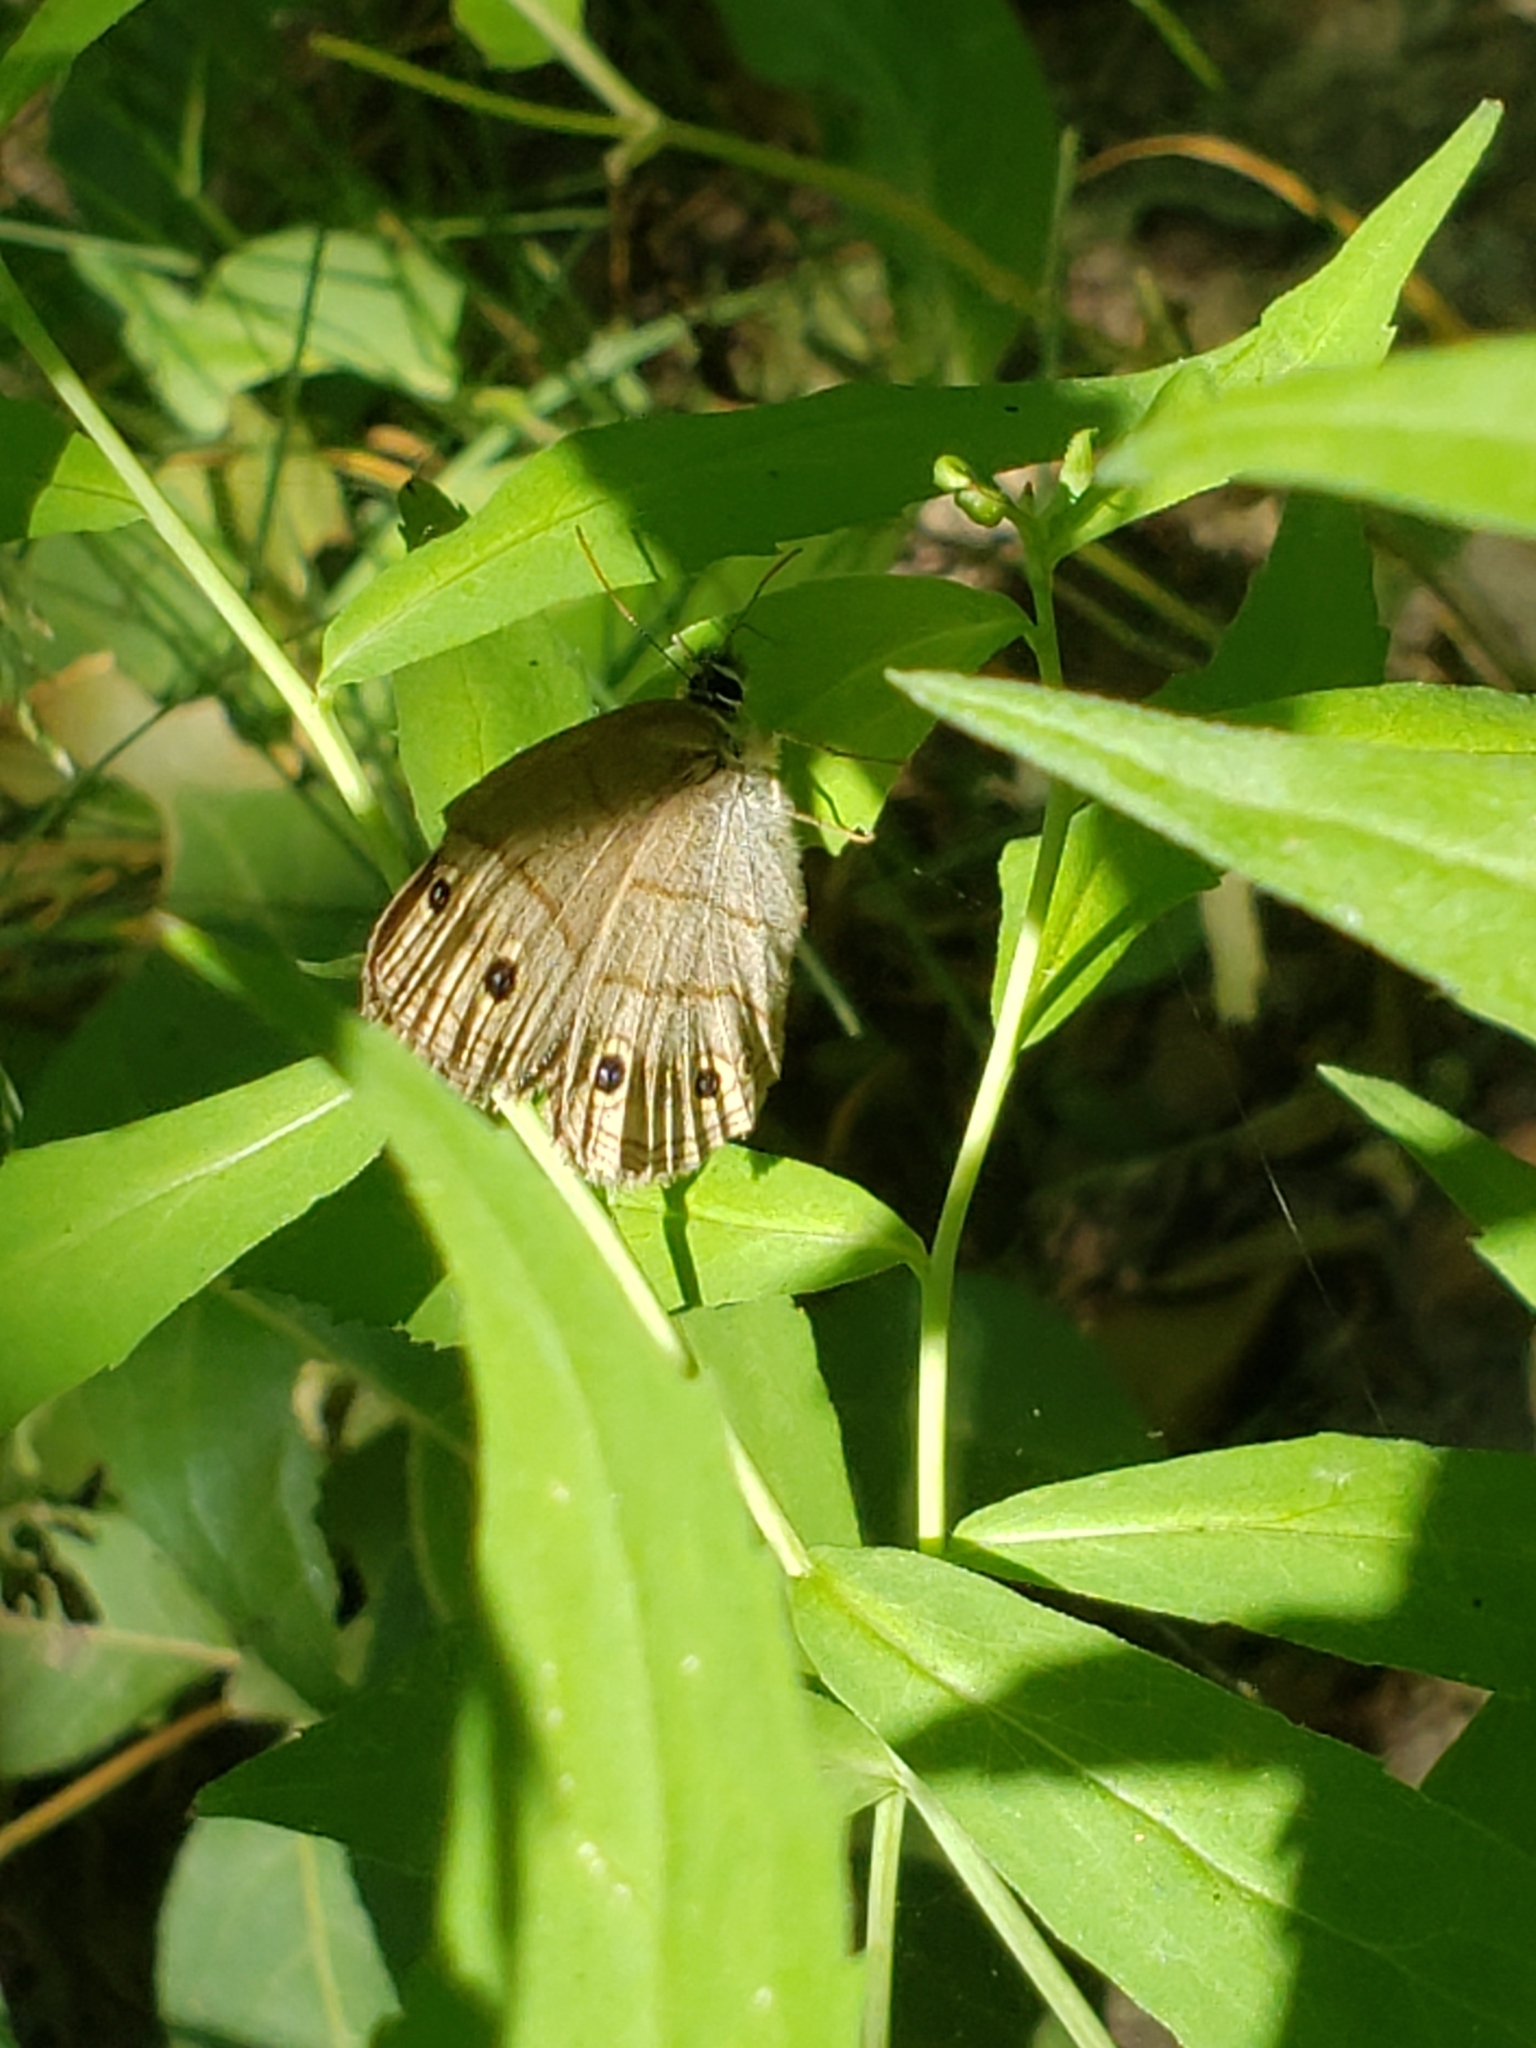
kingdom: Animalia
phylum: Arthropoda
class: Insecta
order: Lepidoptera
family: Nymphalidae
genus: Euptychia
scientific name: Euptychia cymela
